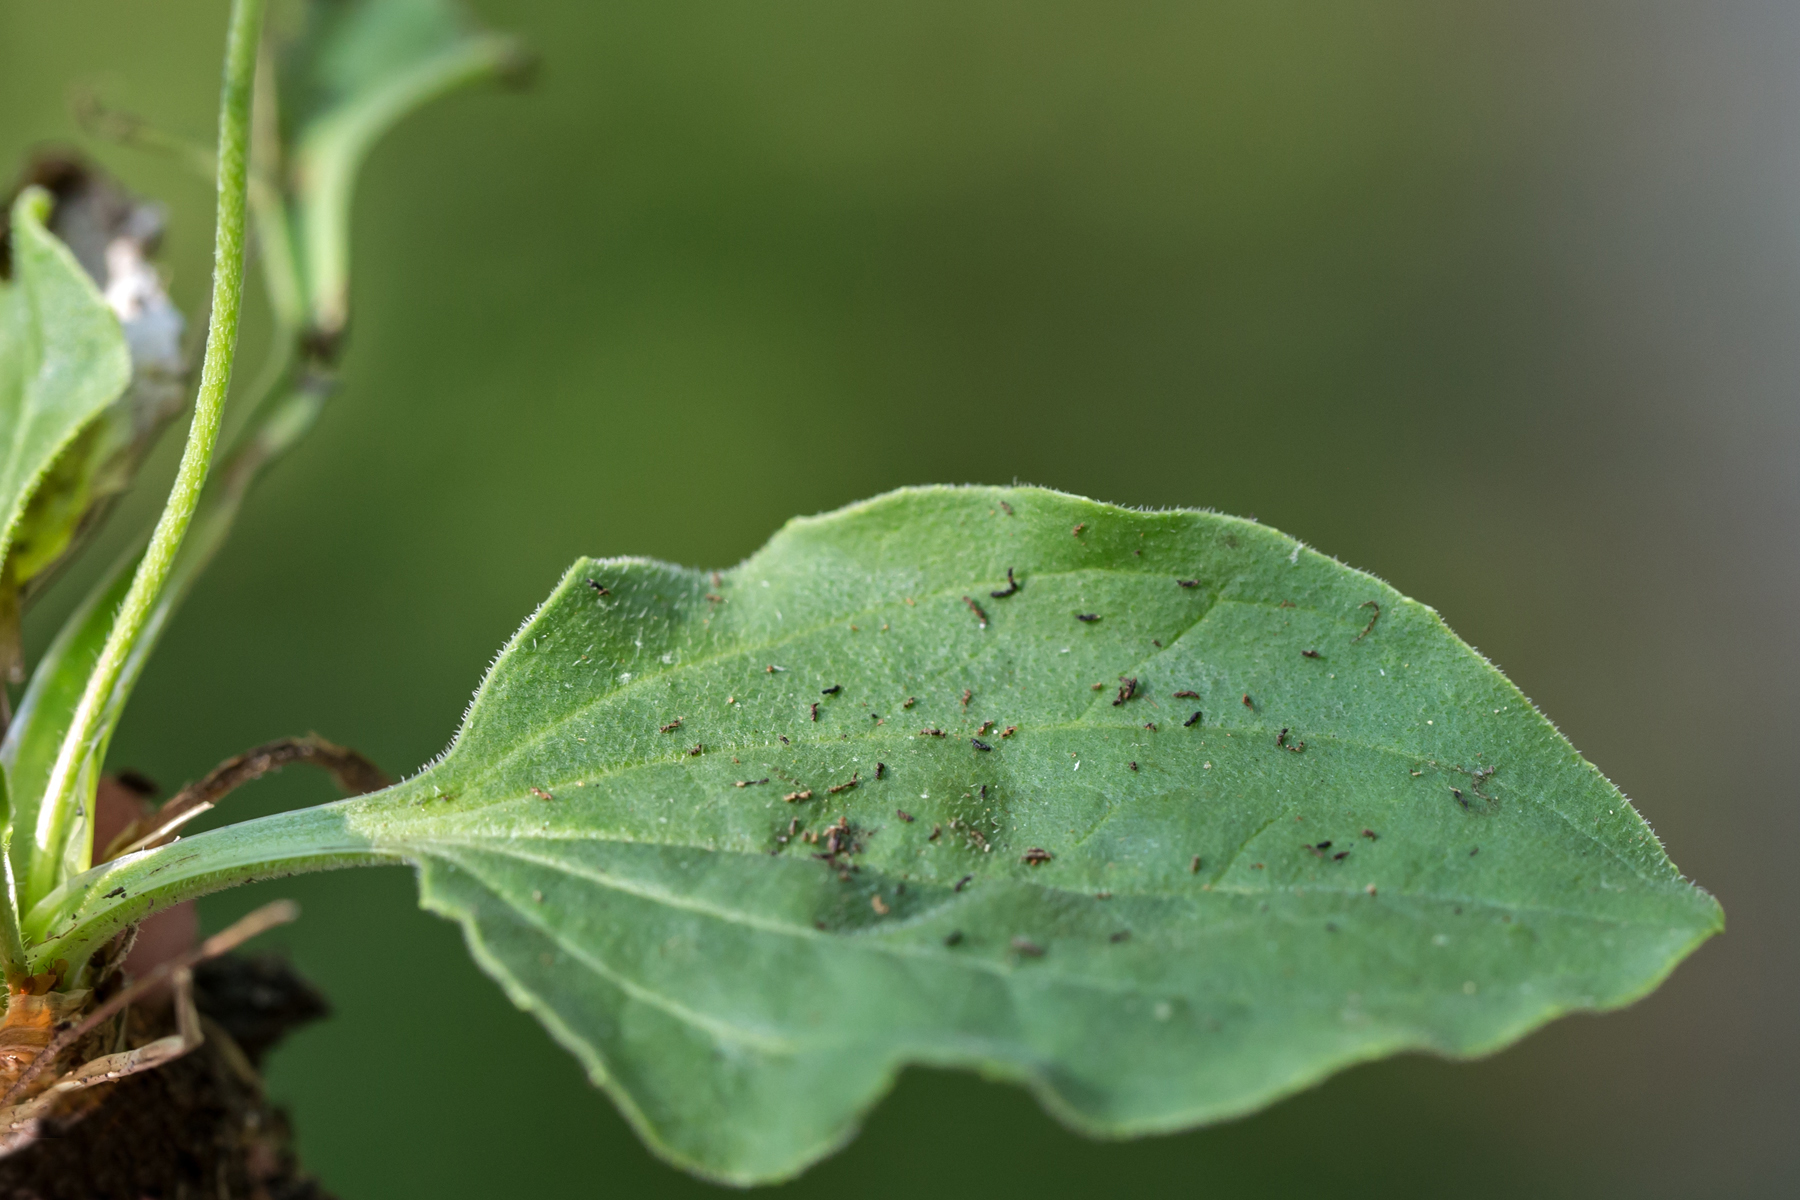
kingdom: Plantae
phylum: Tracheophyta
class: Magnoliopsida
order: Lamiales
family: Plantaginaceae
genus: Plantago
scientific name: Plantago major
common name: Common plantain
